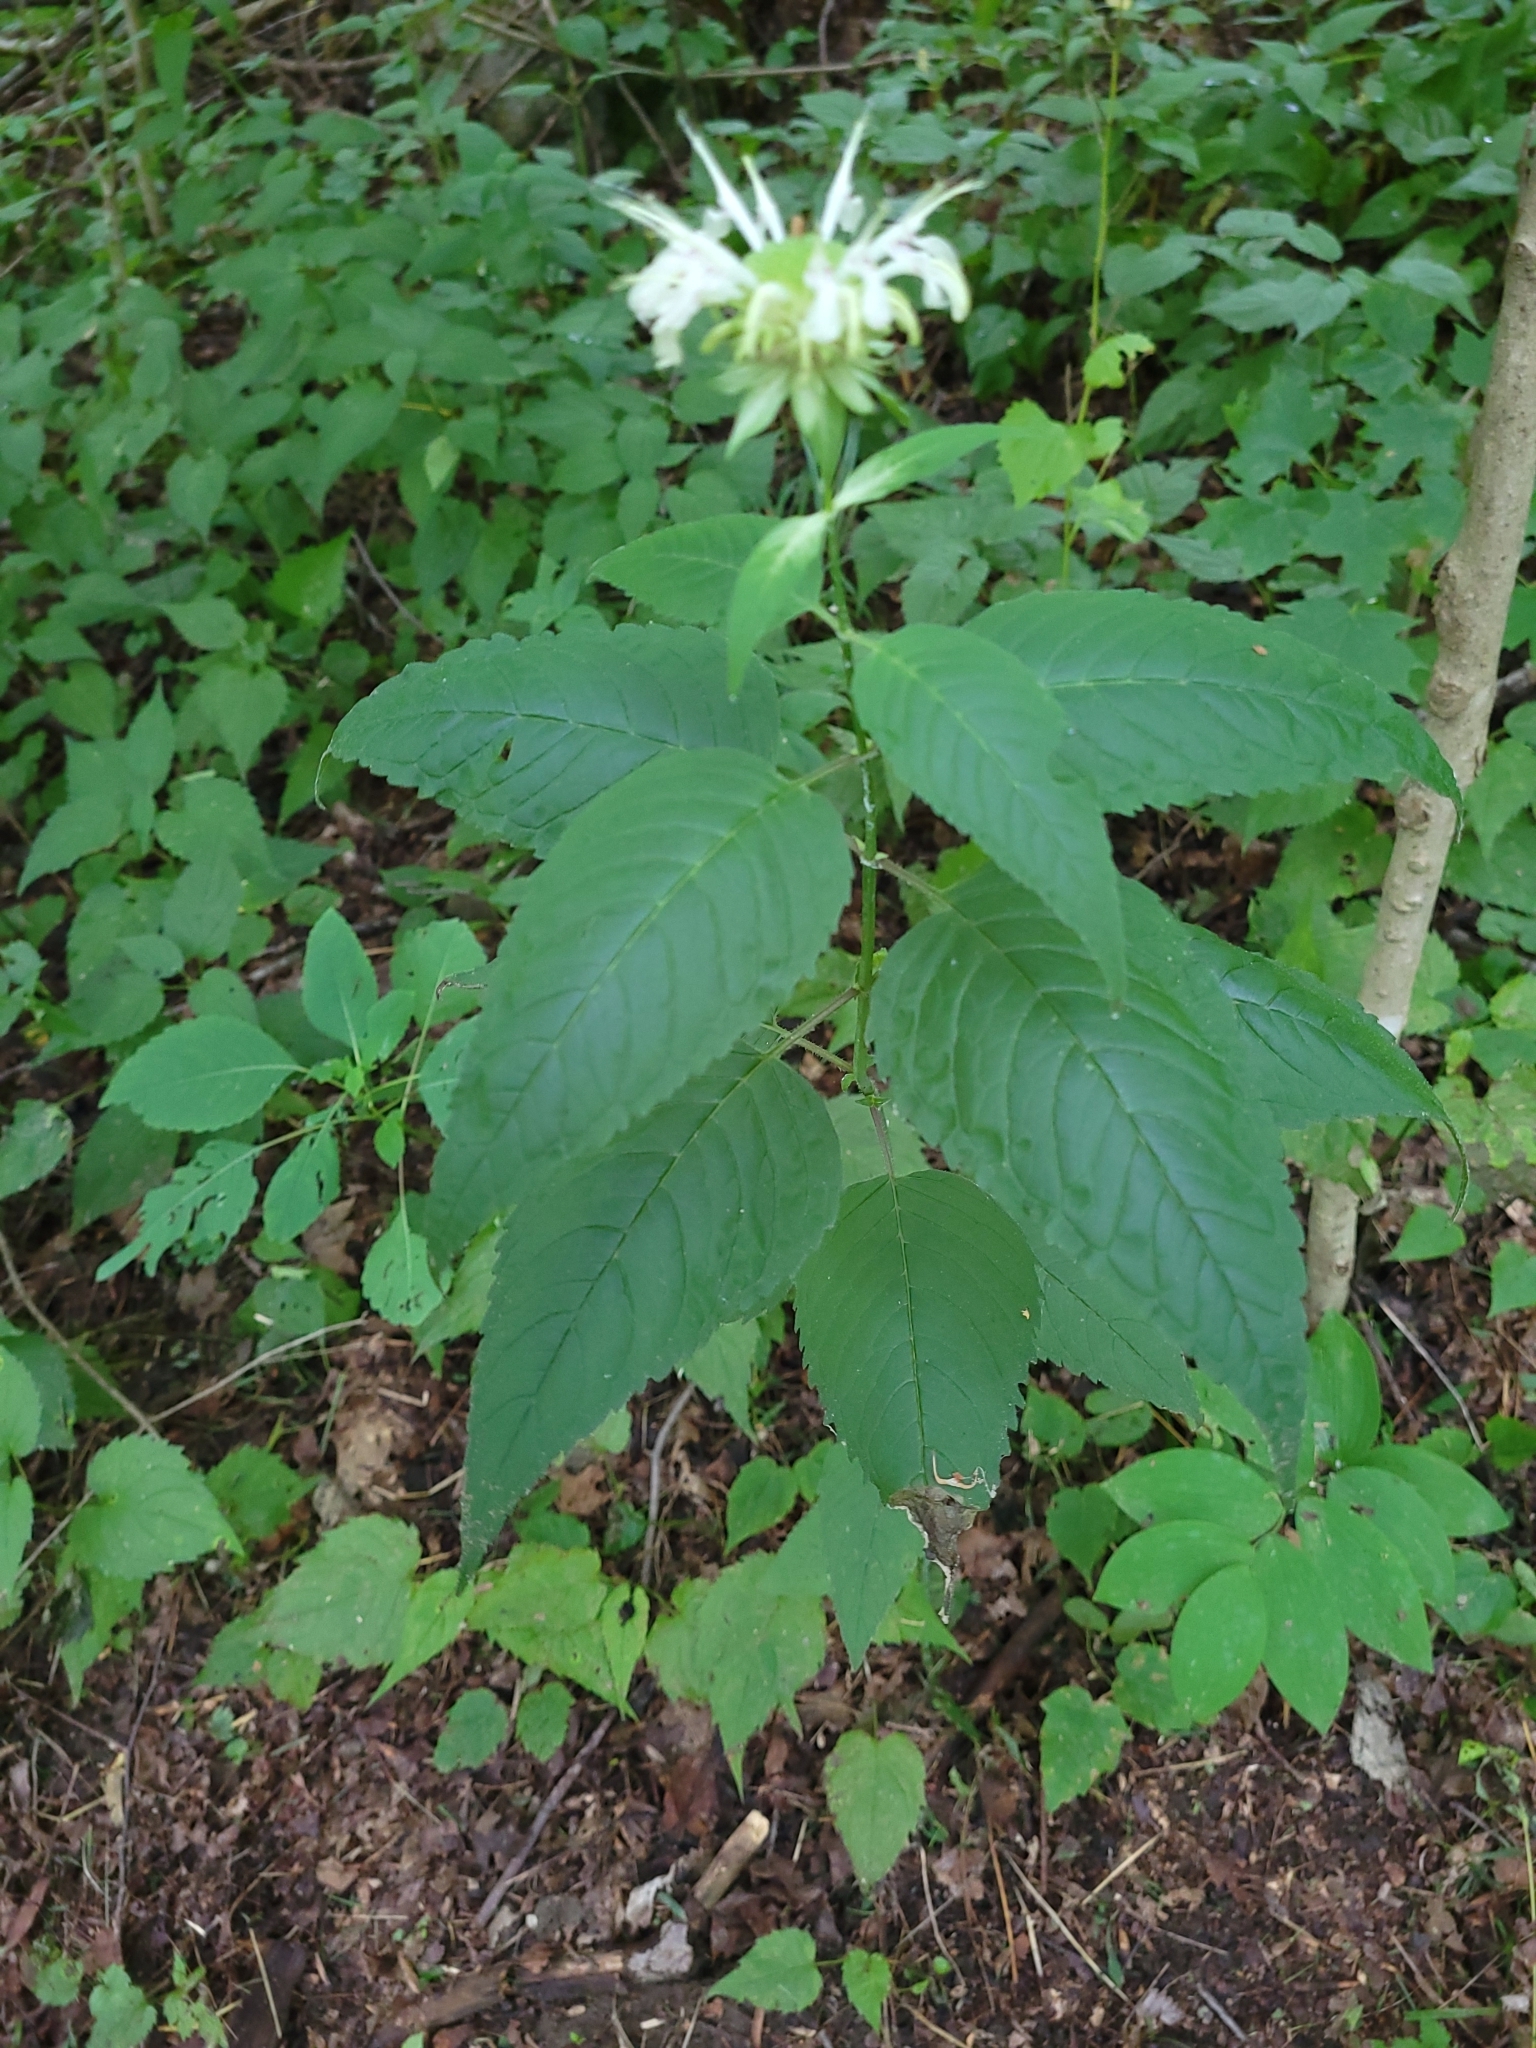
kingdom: Plantae
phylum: Tracheophyta
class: Magnoliopsida
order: Lamiales
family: Lamiaceae
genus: Monarda
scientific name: Monarda clinopodia
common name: Basil beebalm
